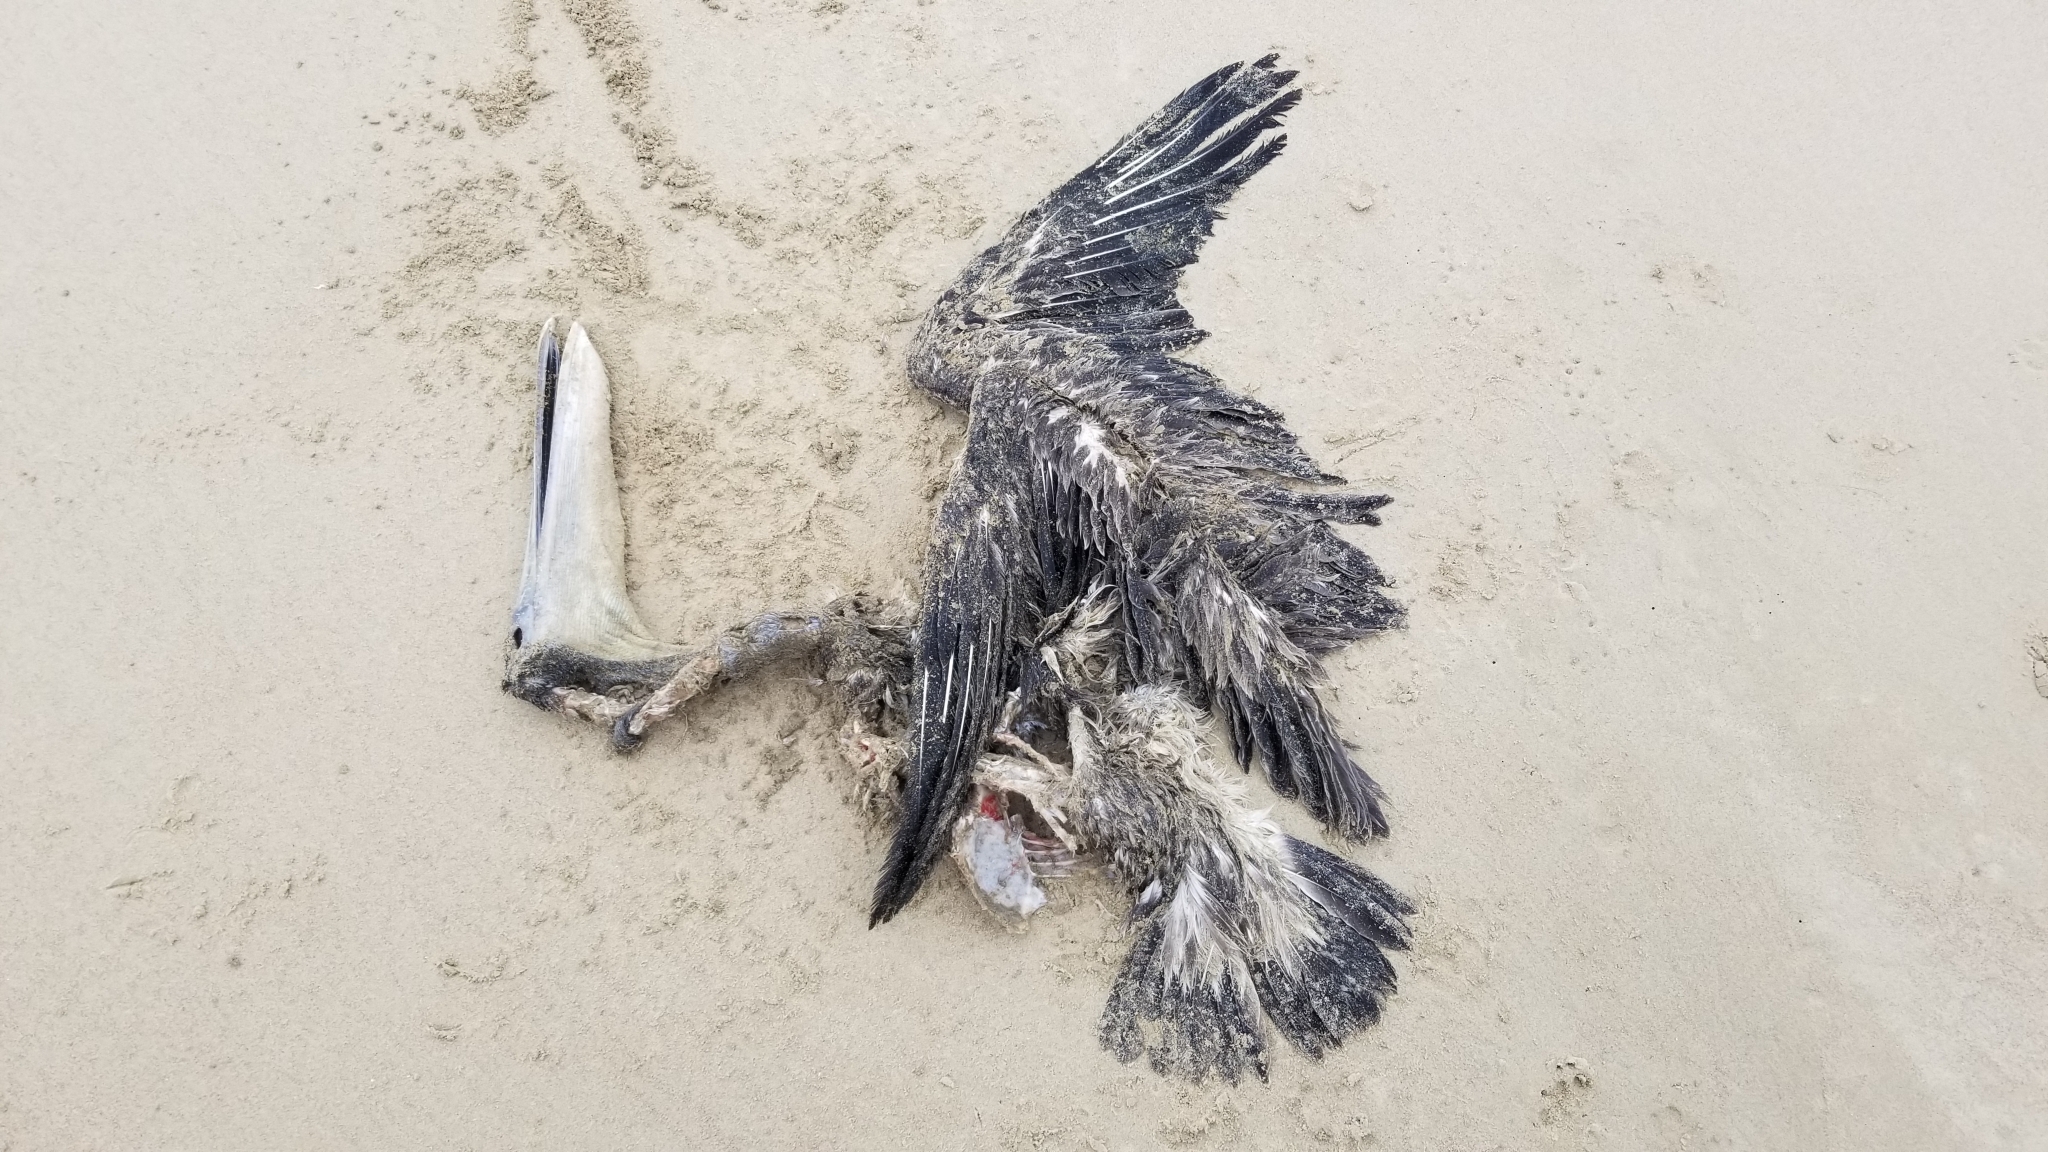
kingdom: Animalia
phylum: Chordata
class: Aves
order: Pelecaniformes
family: Pelecanidae
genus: Pelecanus
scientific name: Pelecanus occidentalis
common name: Brown pelican
